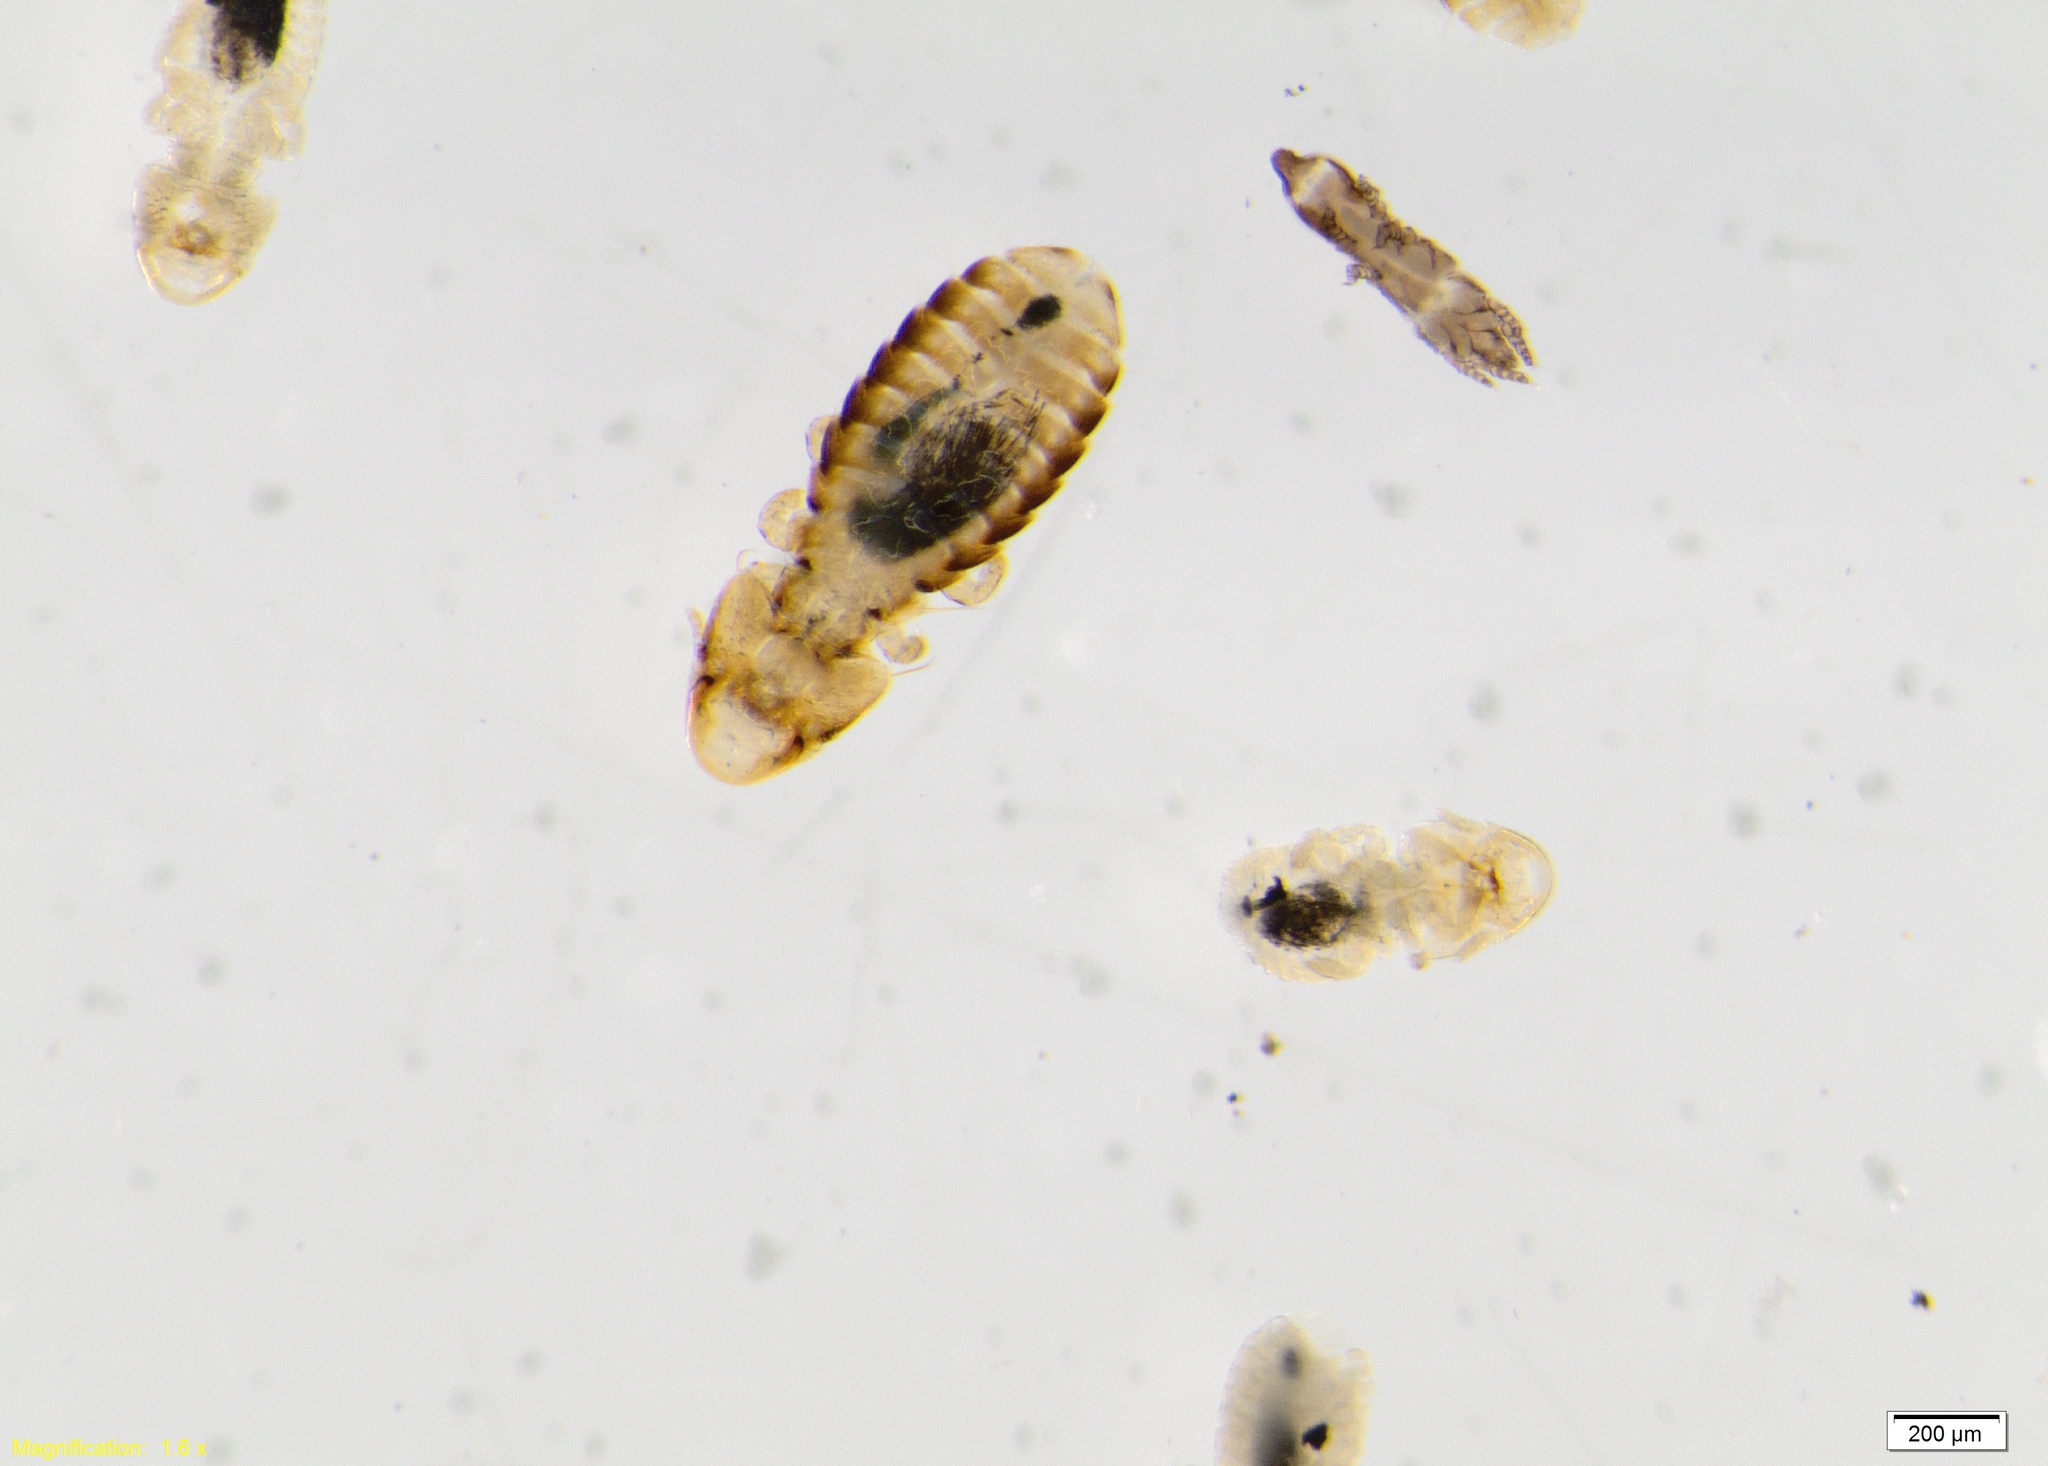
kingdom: Animalia
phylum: Arthropoda
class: Insecta
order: Psocodea
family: Philopteridae
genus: Rallicola
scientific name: Rallicola fulicae
